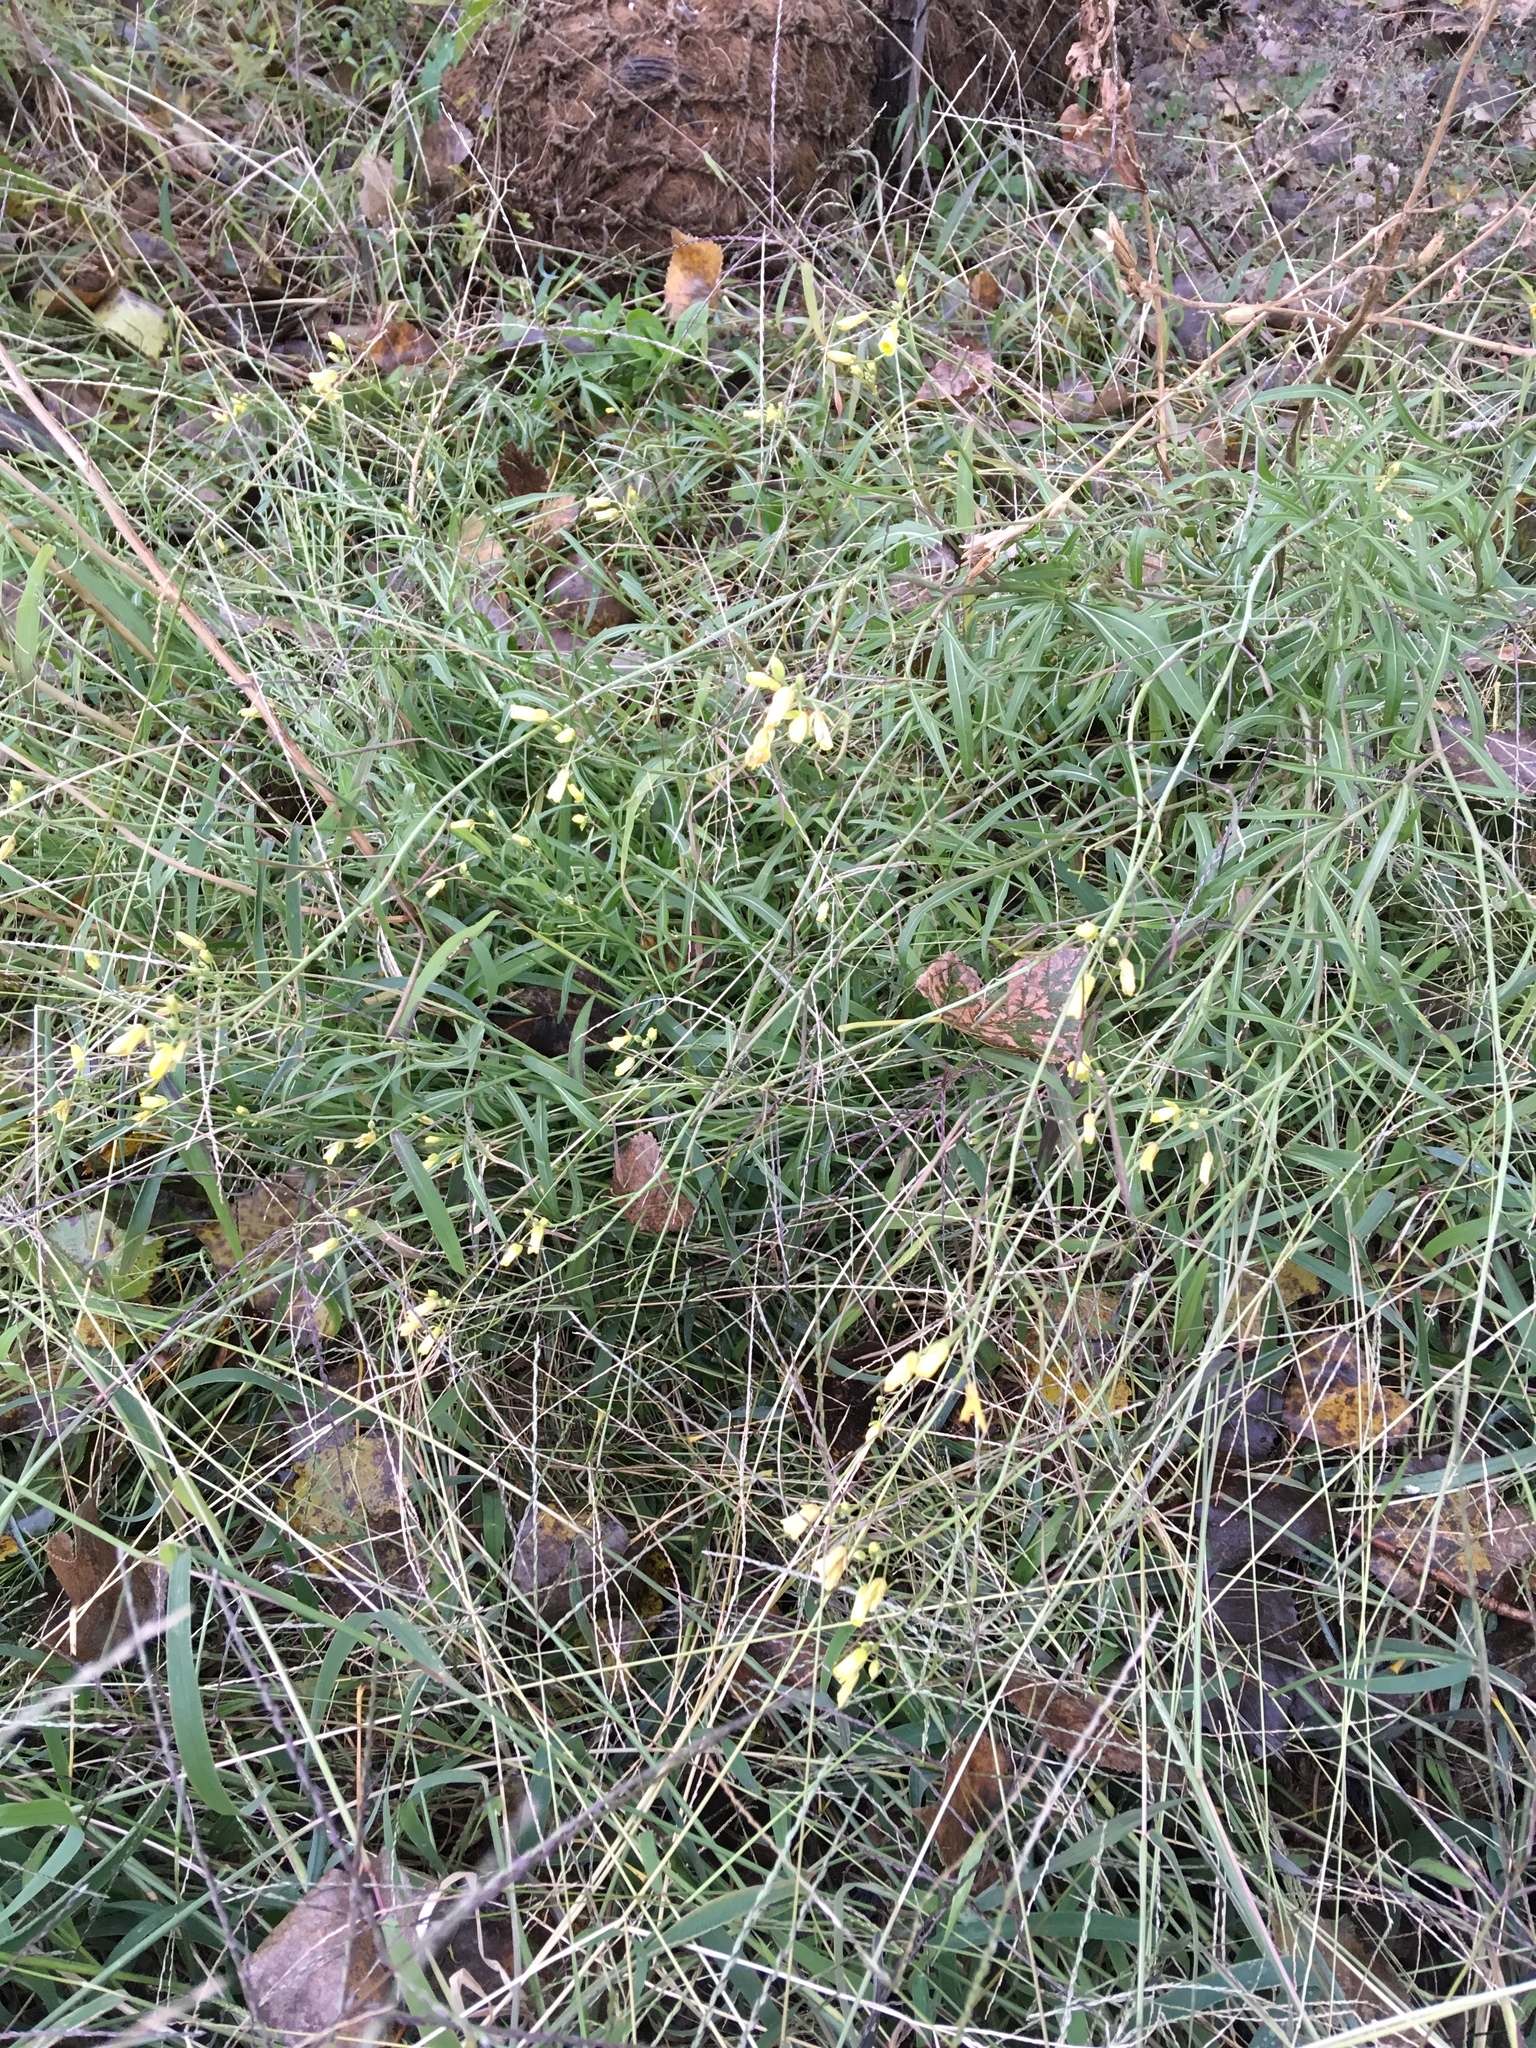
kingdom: Plantae
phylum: Tracheophyta
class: Magnoliopsida
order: Brassicales
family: Brassicaceae
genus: Diplotaxis
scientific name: Diplotaxis tenuifolia
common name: Perennial wall-rocket
